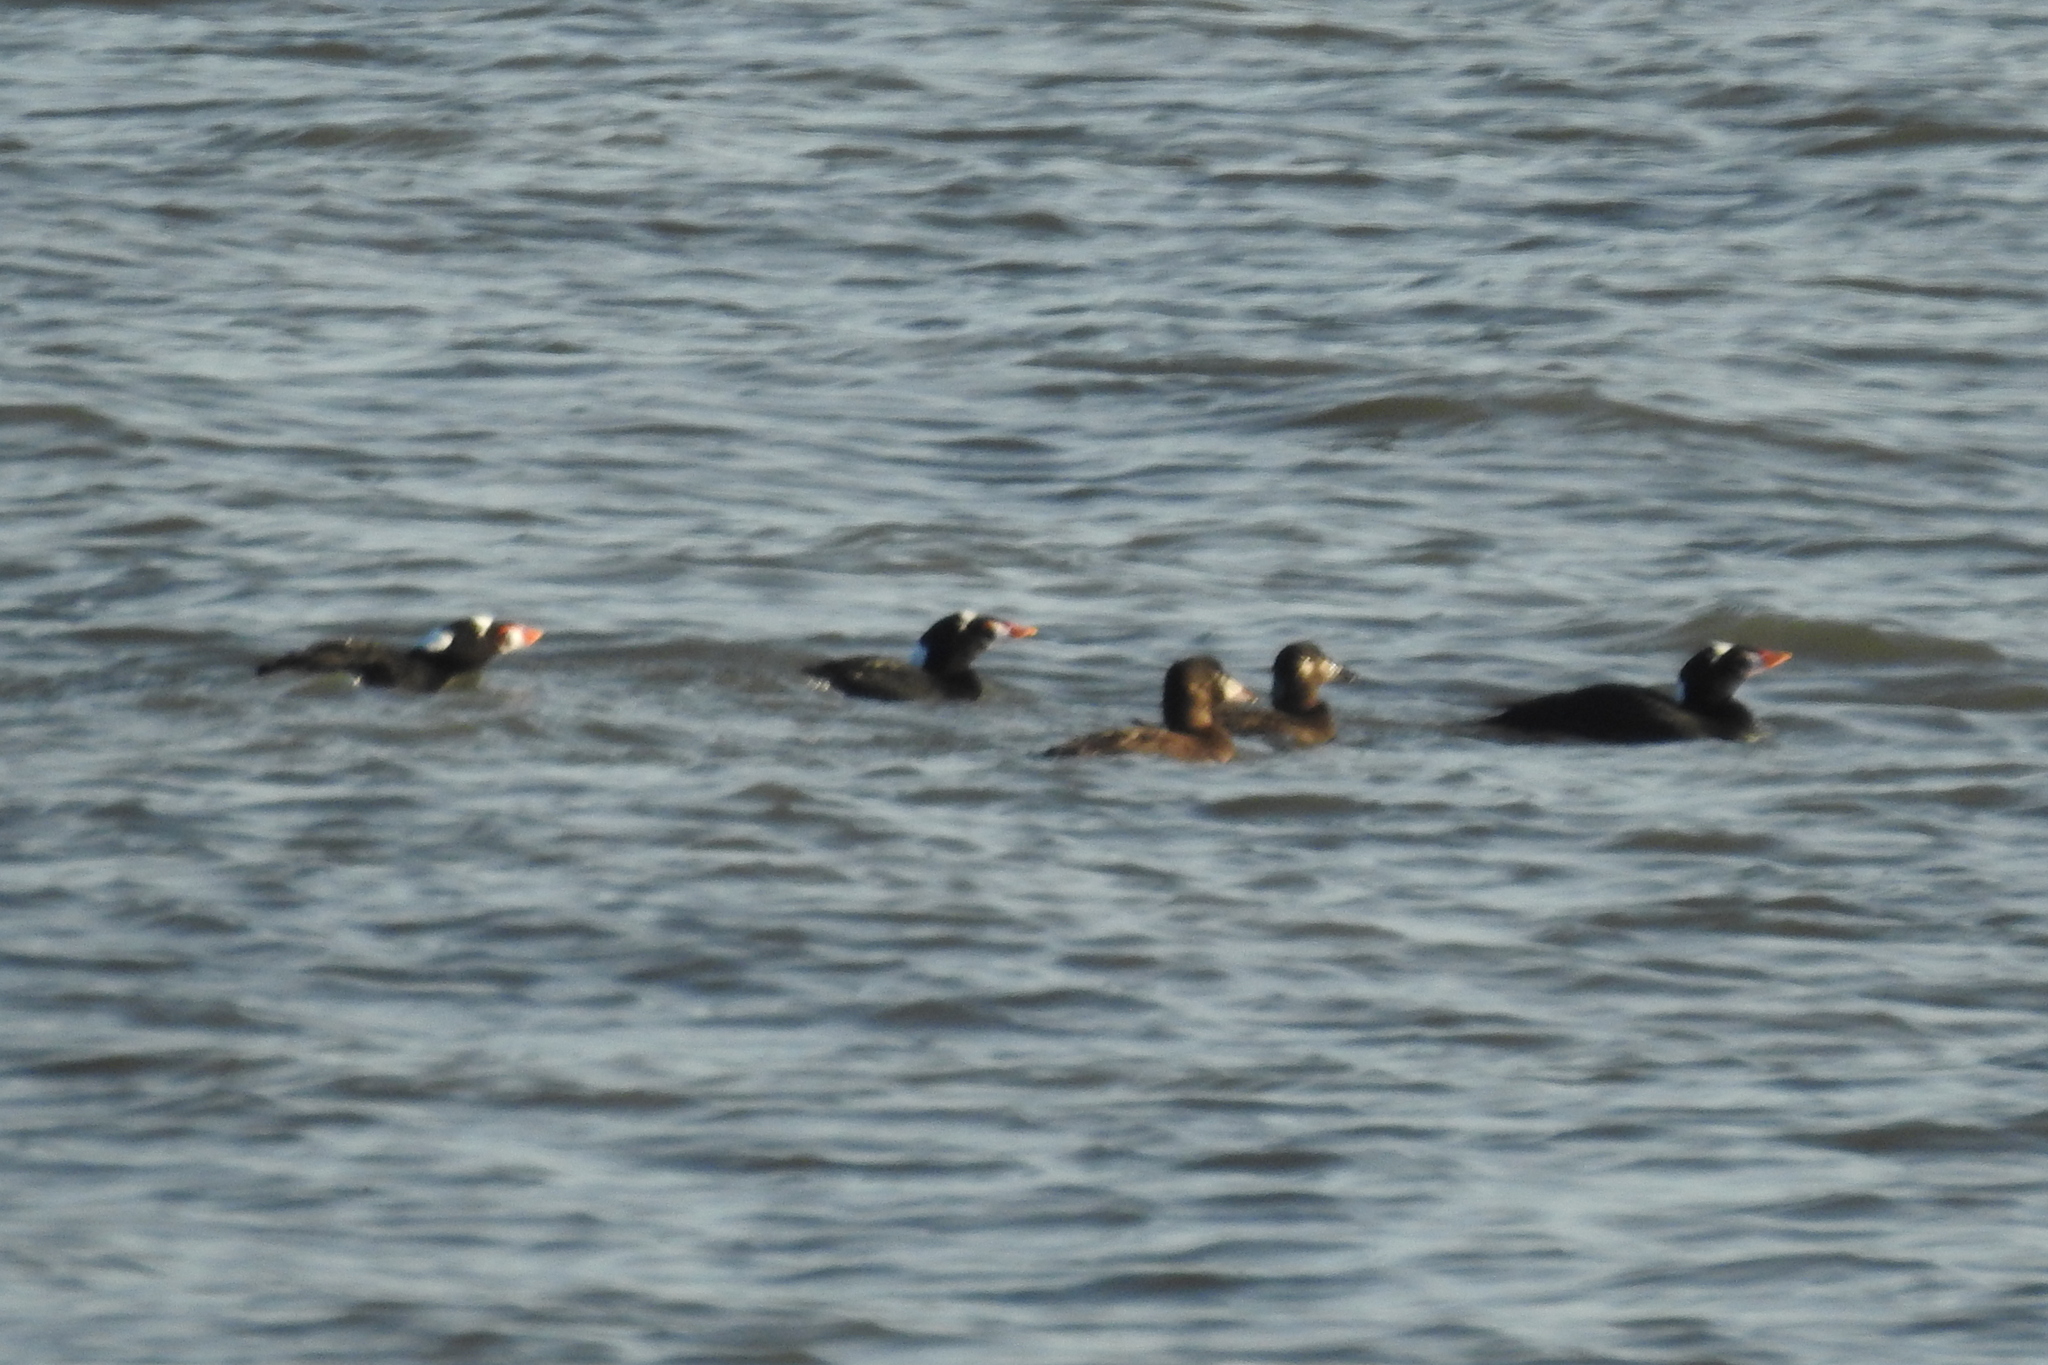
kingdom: Animalia
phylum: Chordata
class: Aves
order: Anseriformes
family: Anatidae
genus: Melanitta
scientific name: Melanitta perspicillata
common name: Surf scoter
